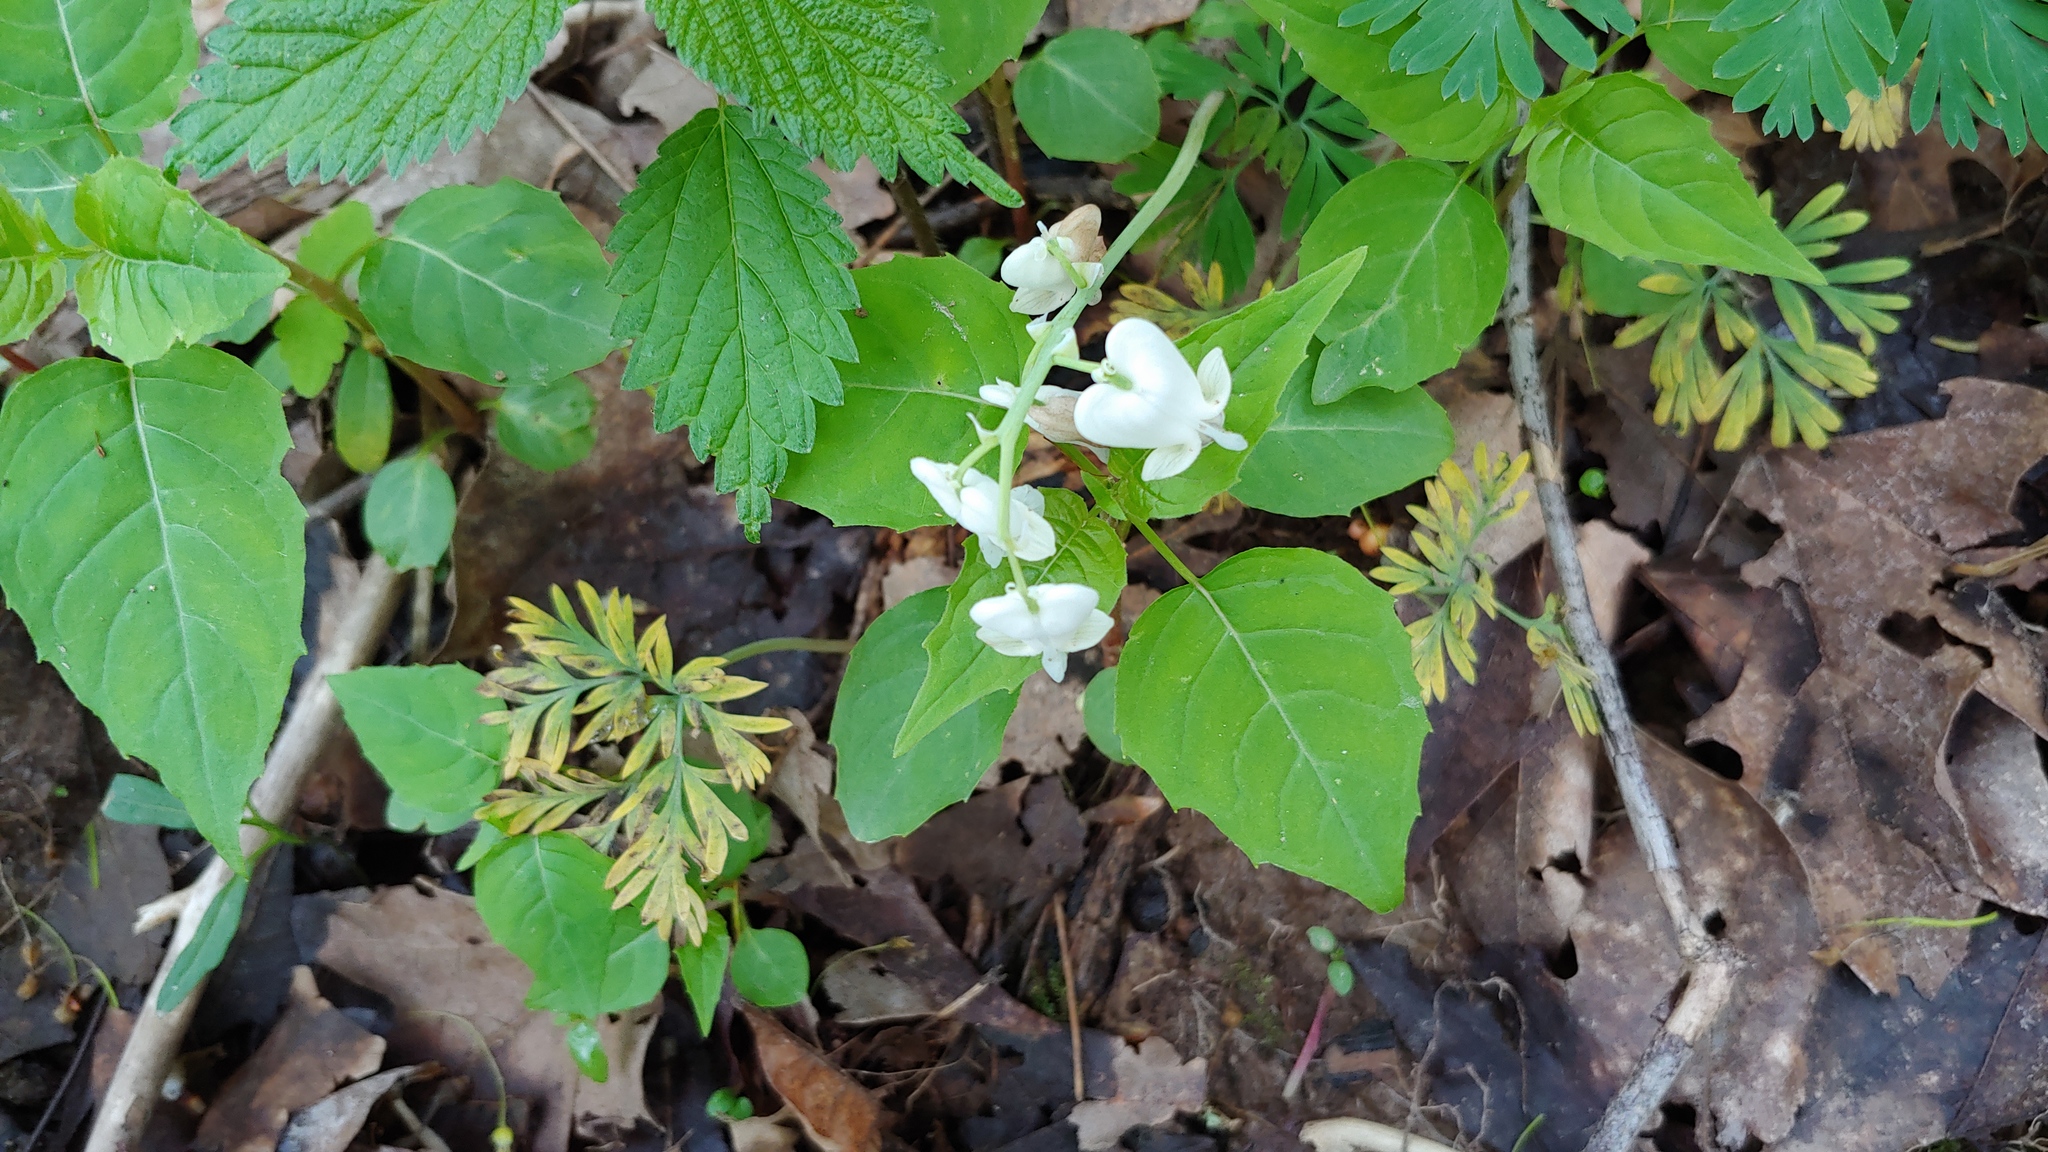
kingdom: Plantae
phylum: Tracheophyta
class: Magnoliopsida
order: Ranunculales
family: Papaveraceae
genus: Dicentra
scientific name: Dicentra canadensis
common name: Squirrel-corn
